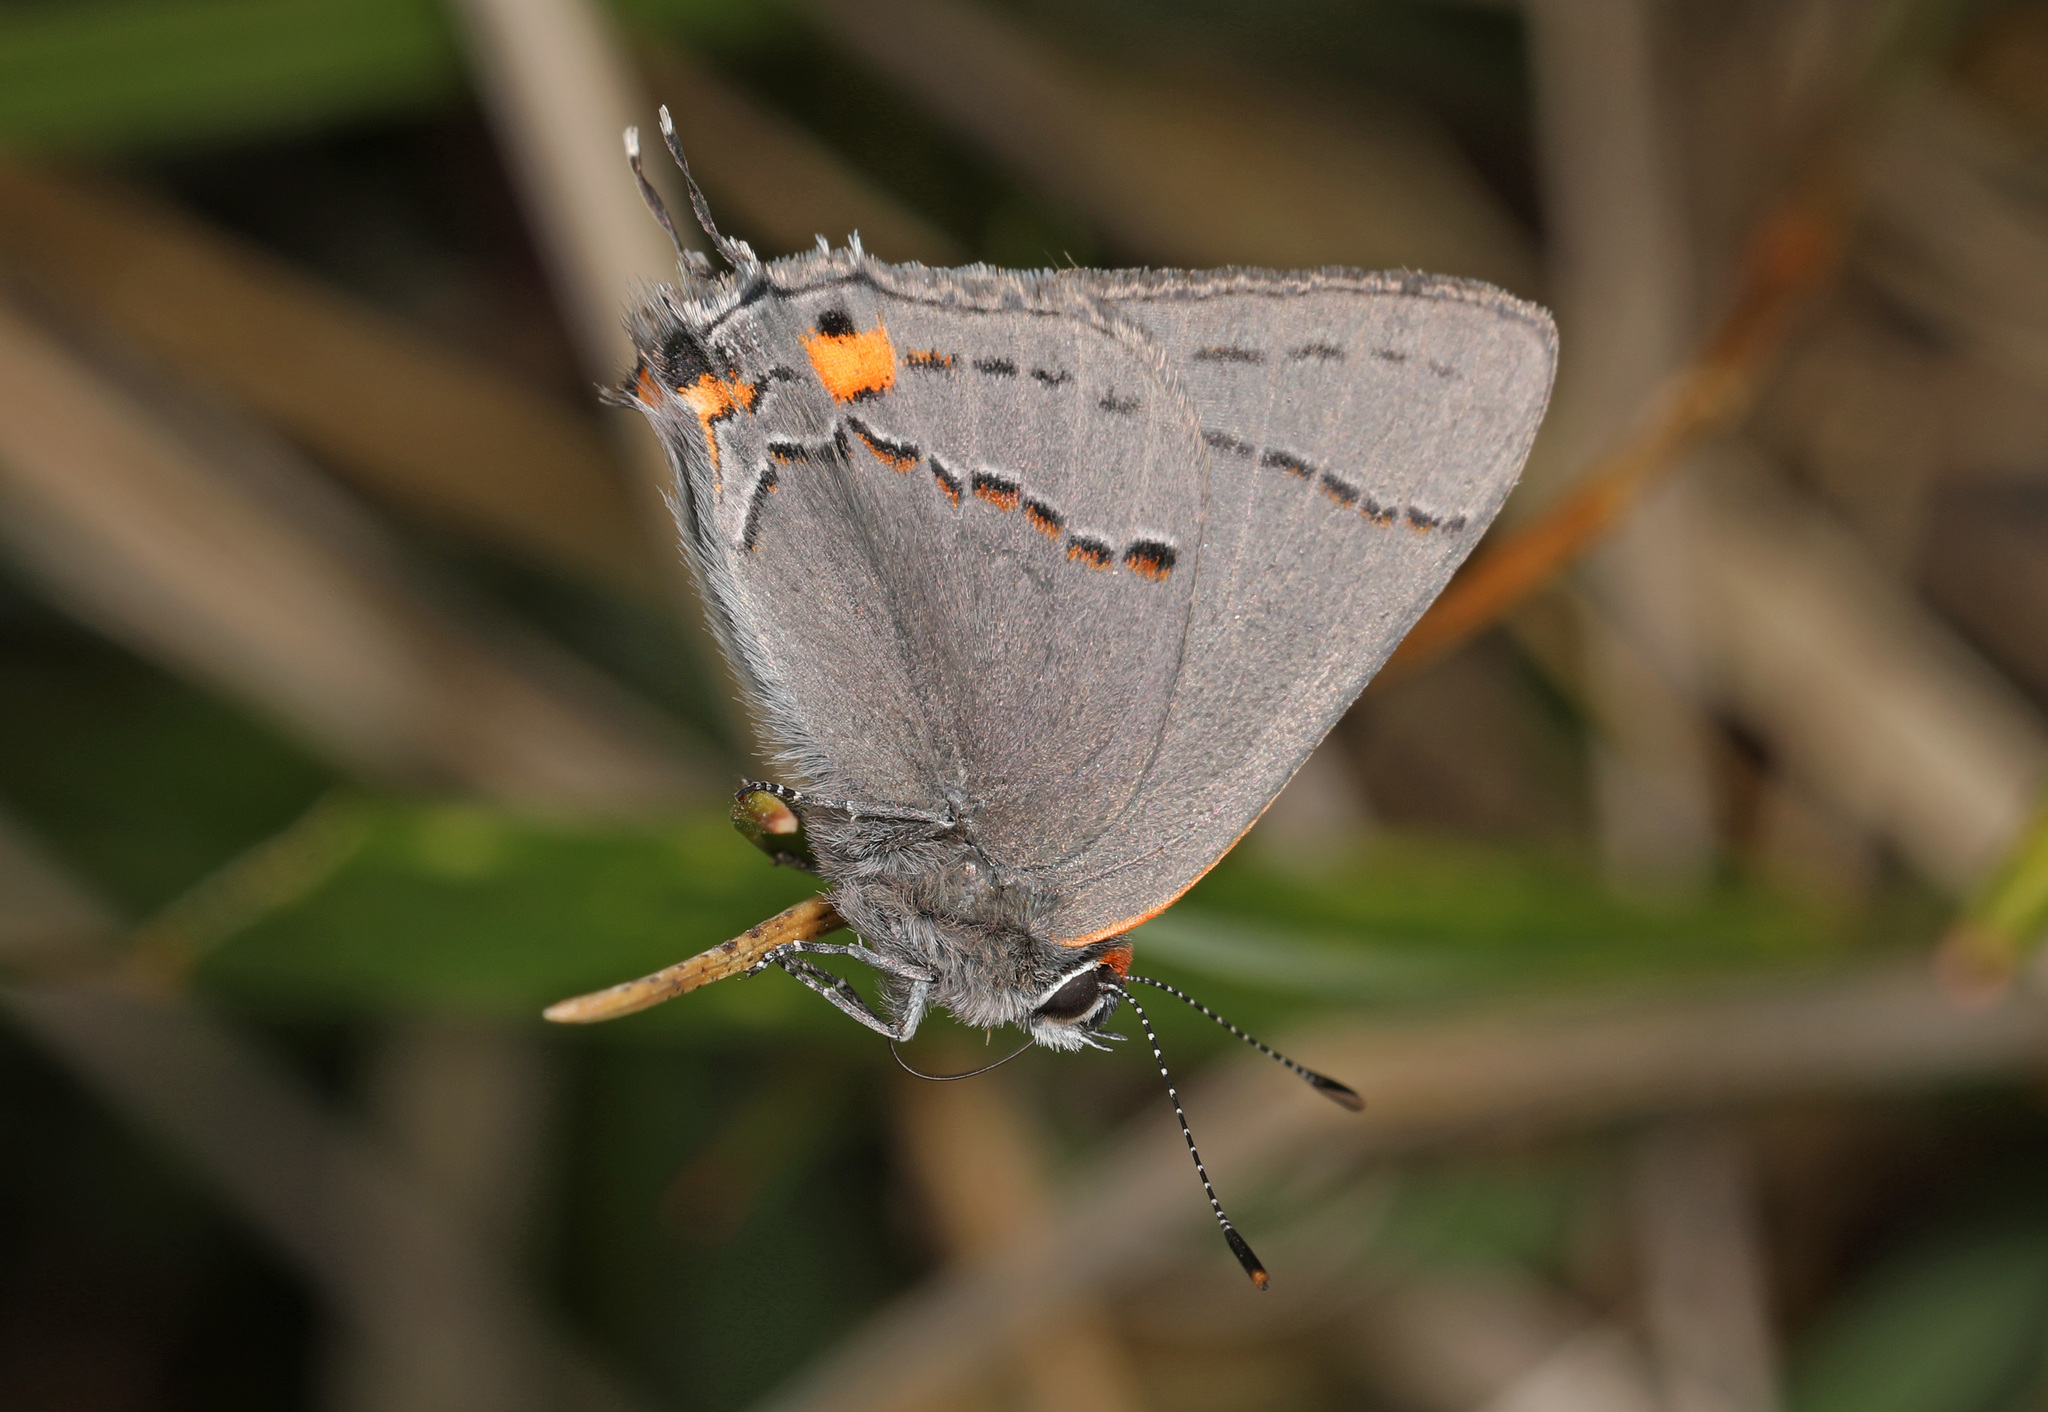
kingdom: Animalia
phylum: Arthropoda
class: Insecta
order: Lepidoptera
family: Lycaenidae
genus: Strymon
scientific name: Strymon melinus
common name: Gray hairstreak
